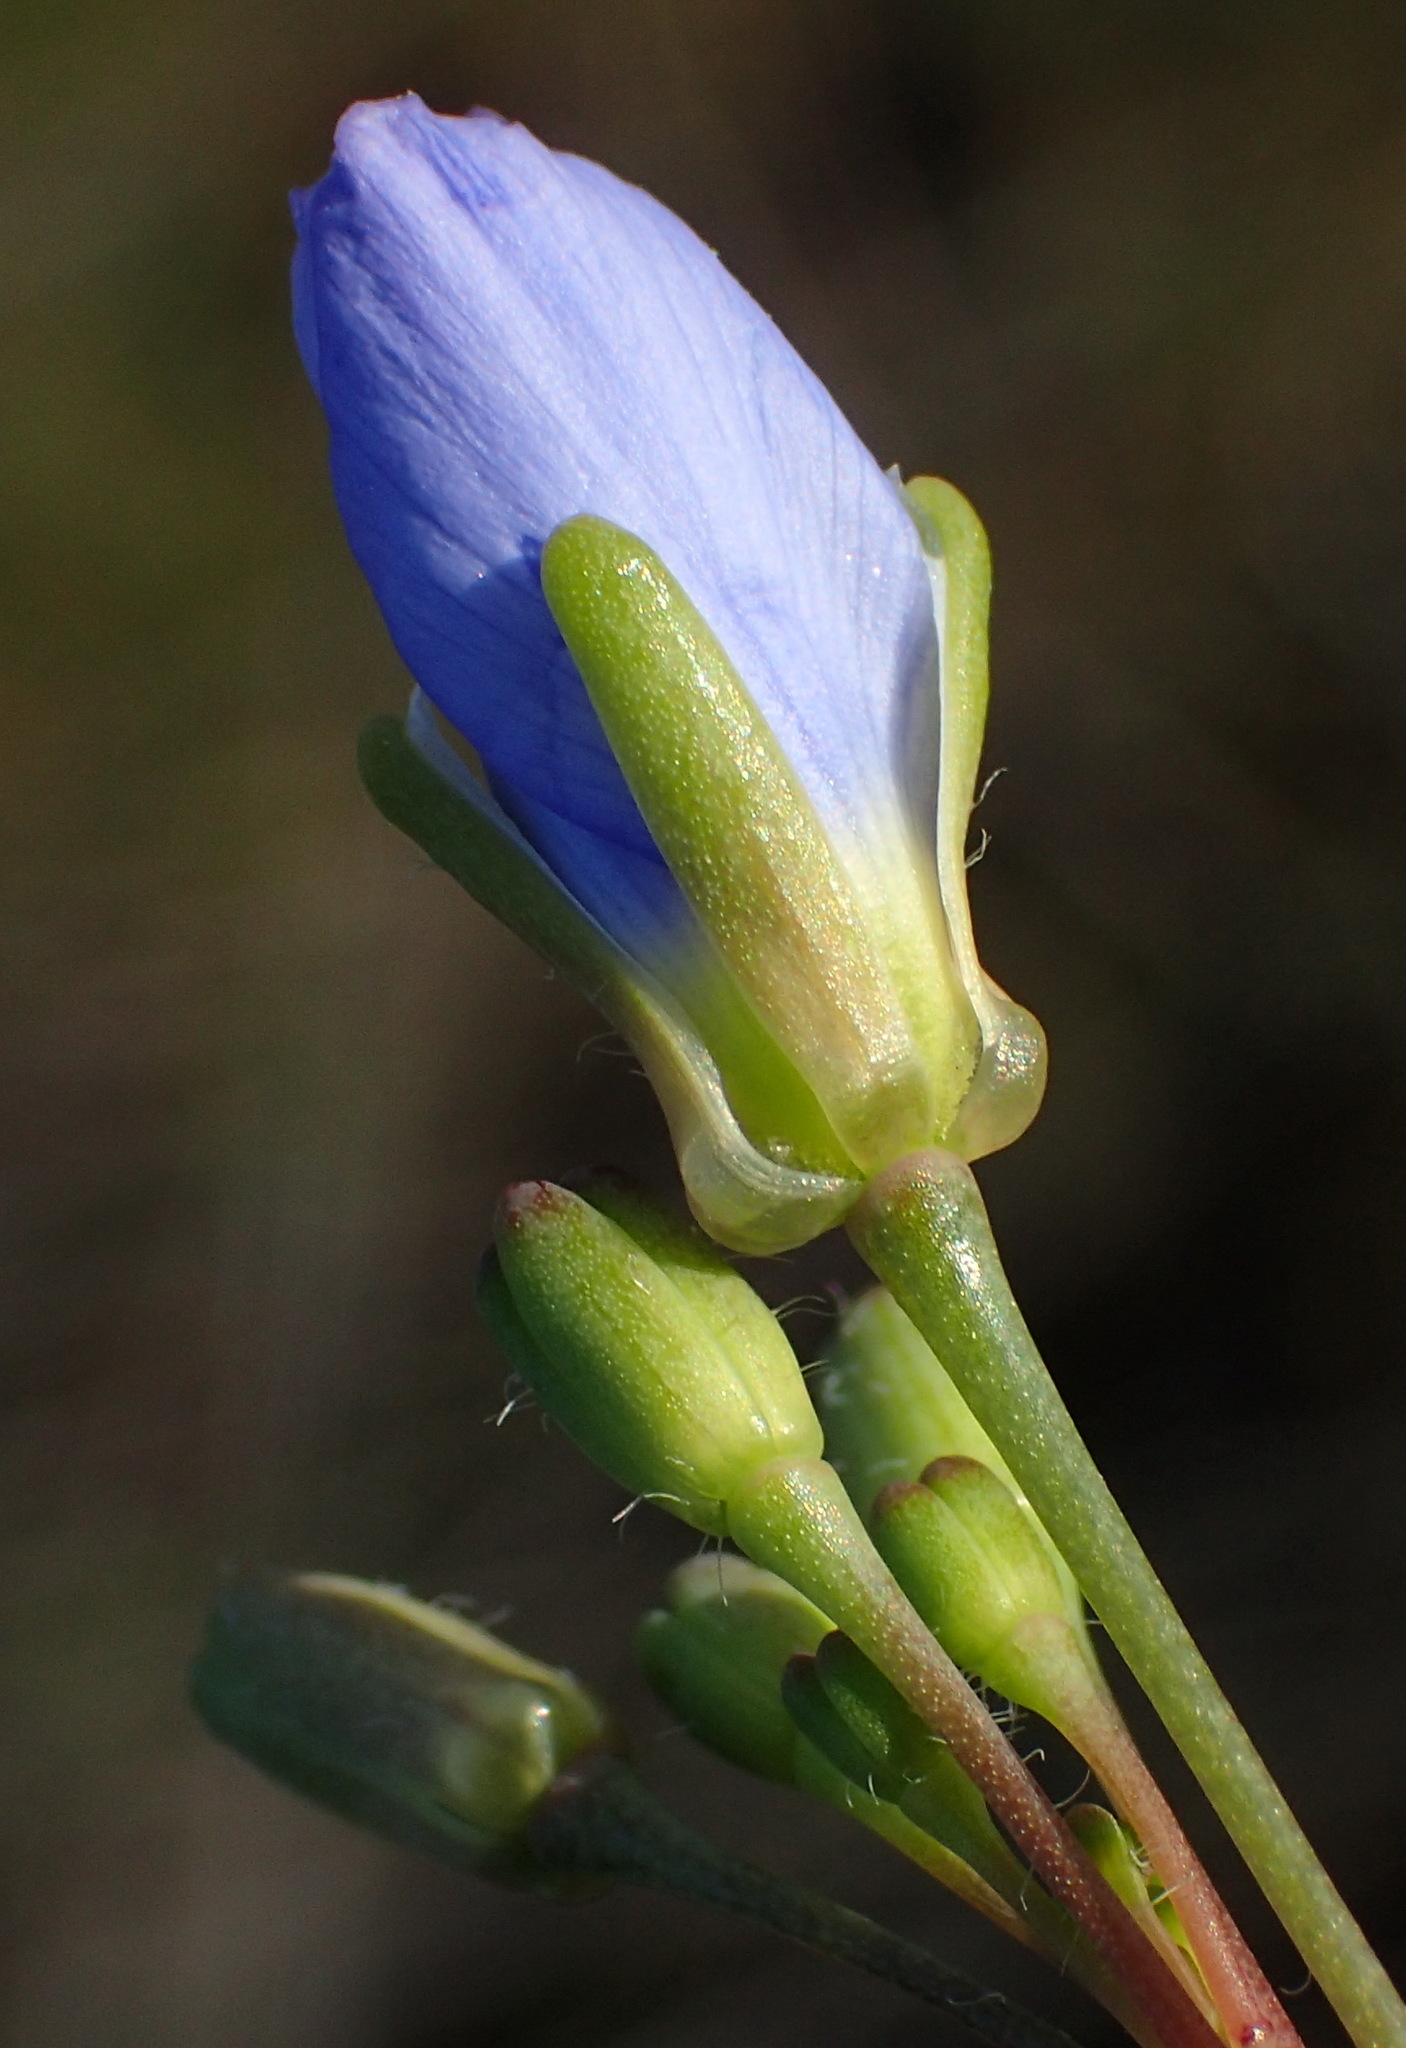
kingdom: Plantae
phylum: Tracheophyta
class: Magnoliopsida
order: Brassicales
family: Brassicaceae
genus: Heliophila
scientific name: Heliophila linearis
